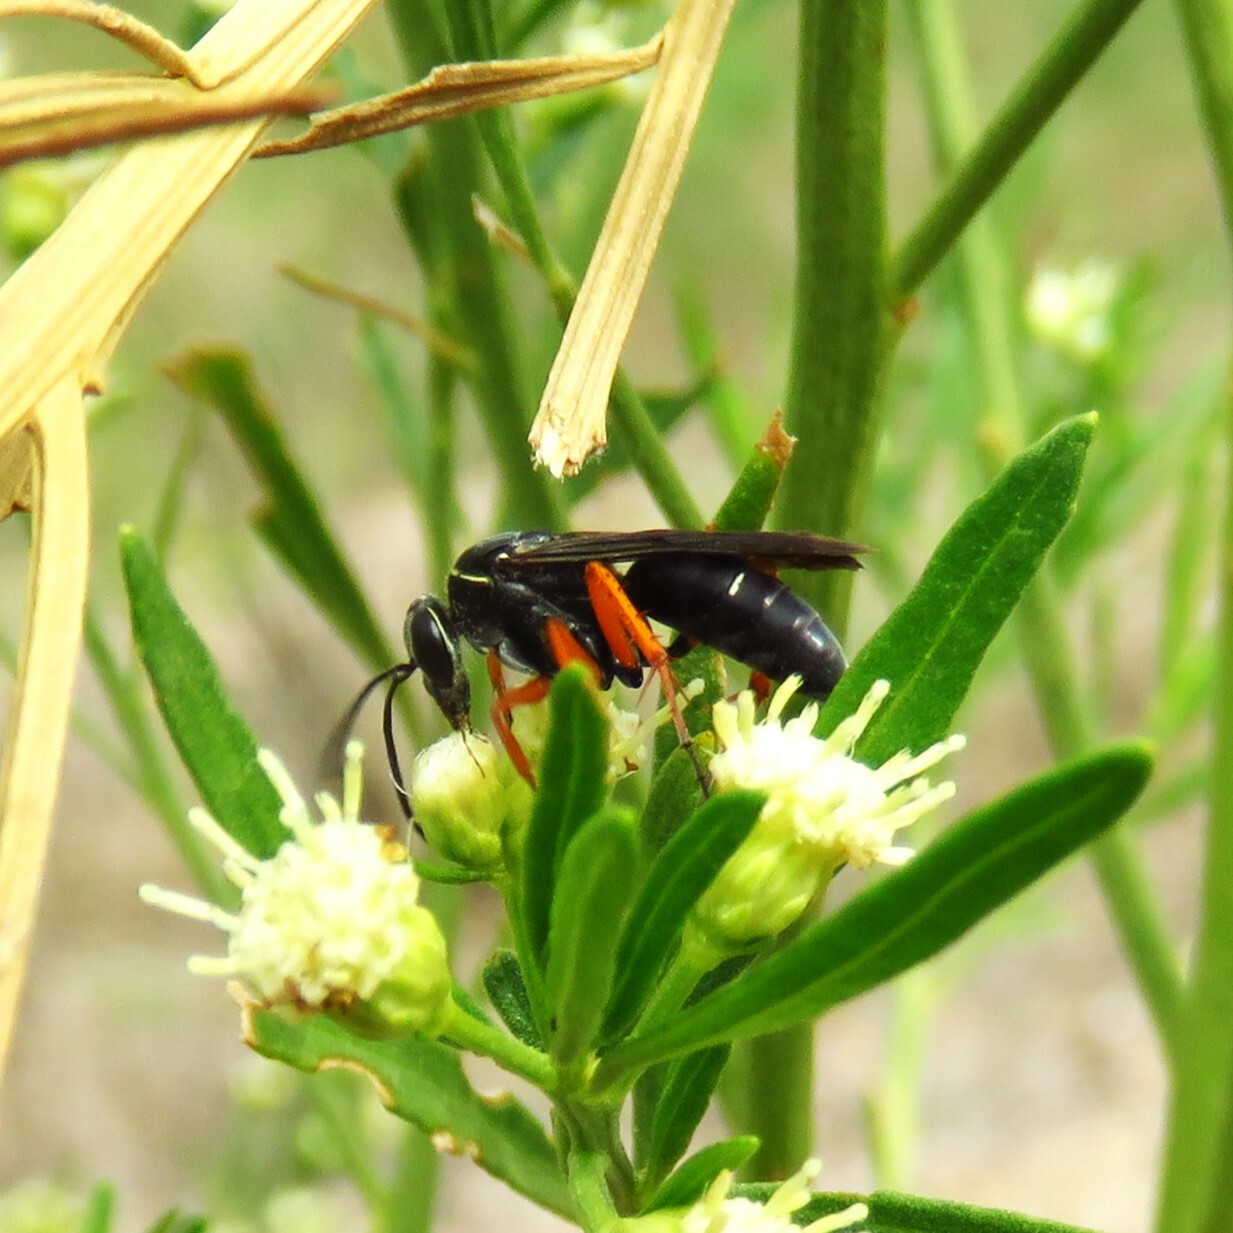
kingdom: Animalia
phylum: Arthropoda
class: Insecta
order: Hymenoptera
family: Pompilidae
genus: Episyron
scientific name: Episyron conterminus
